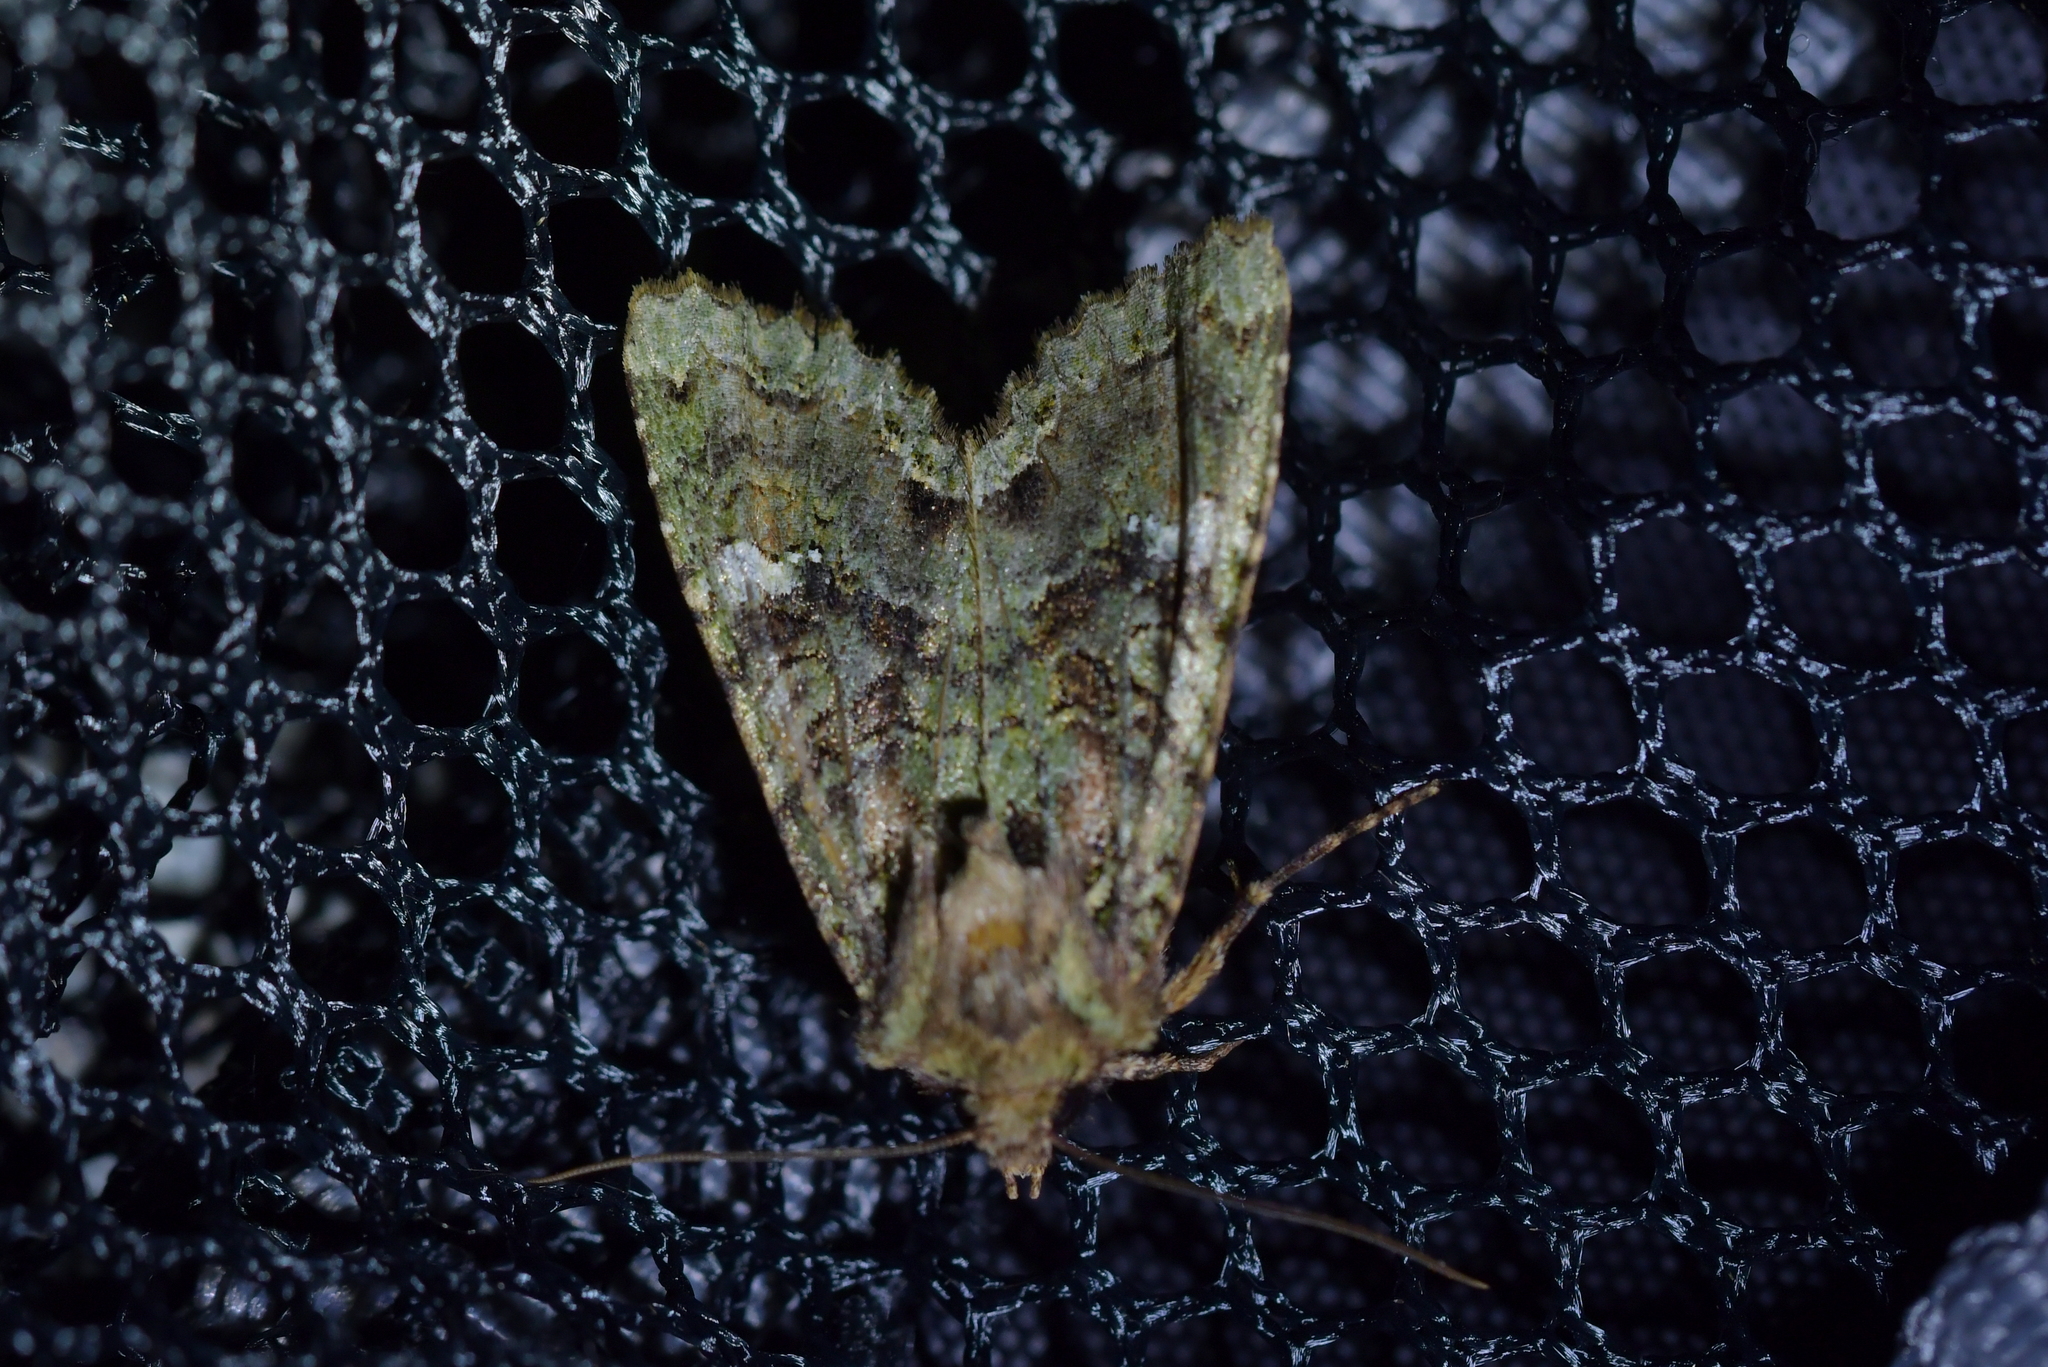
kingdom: Animalia
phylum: Arthropoda
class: Insecta
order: Lepidoptera
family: Noctuidae
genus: Meterana
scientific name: Meterana
